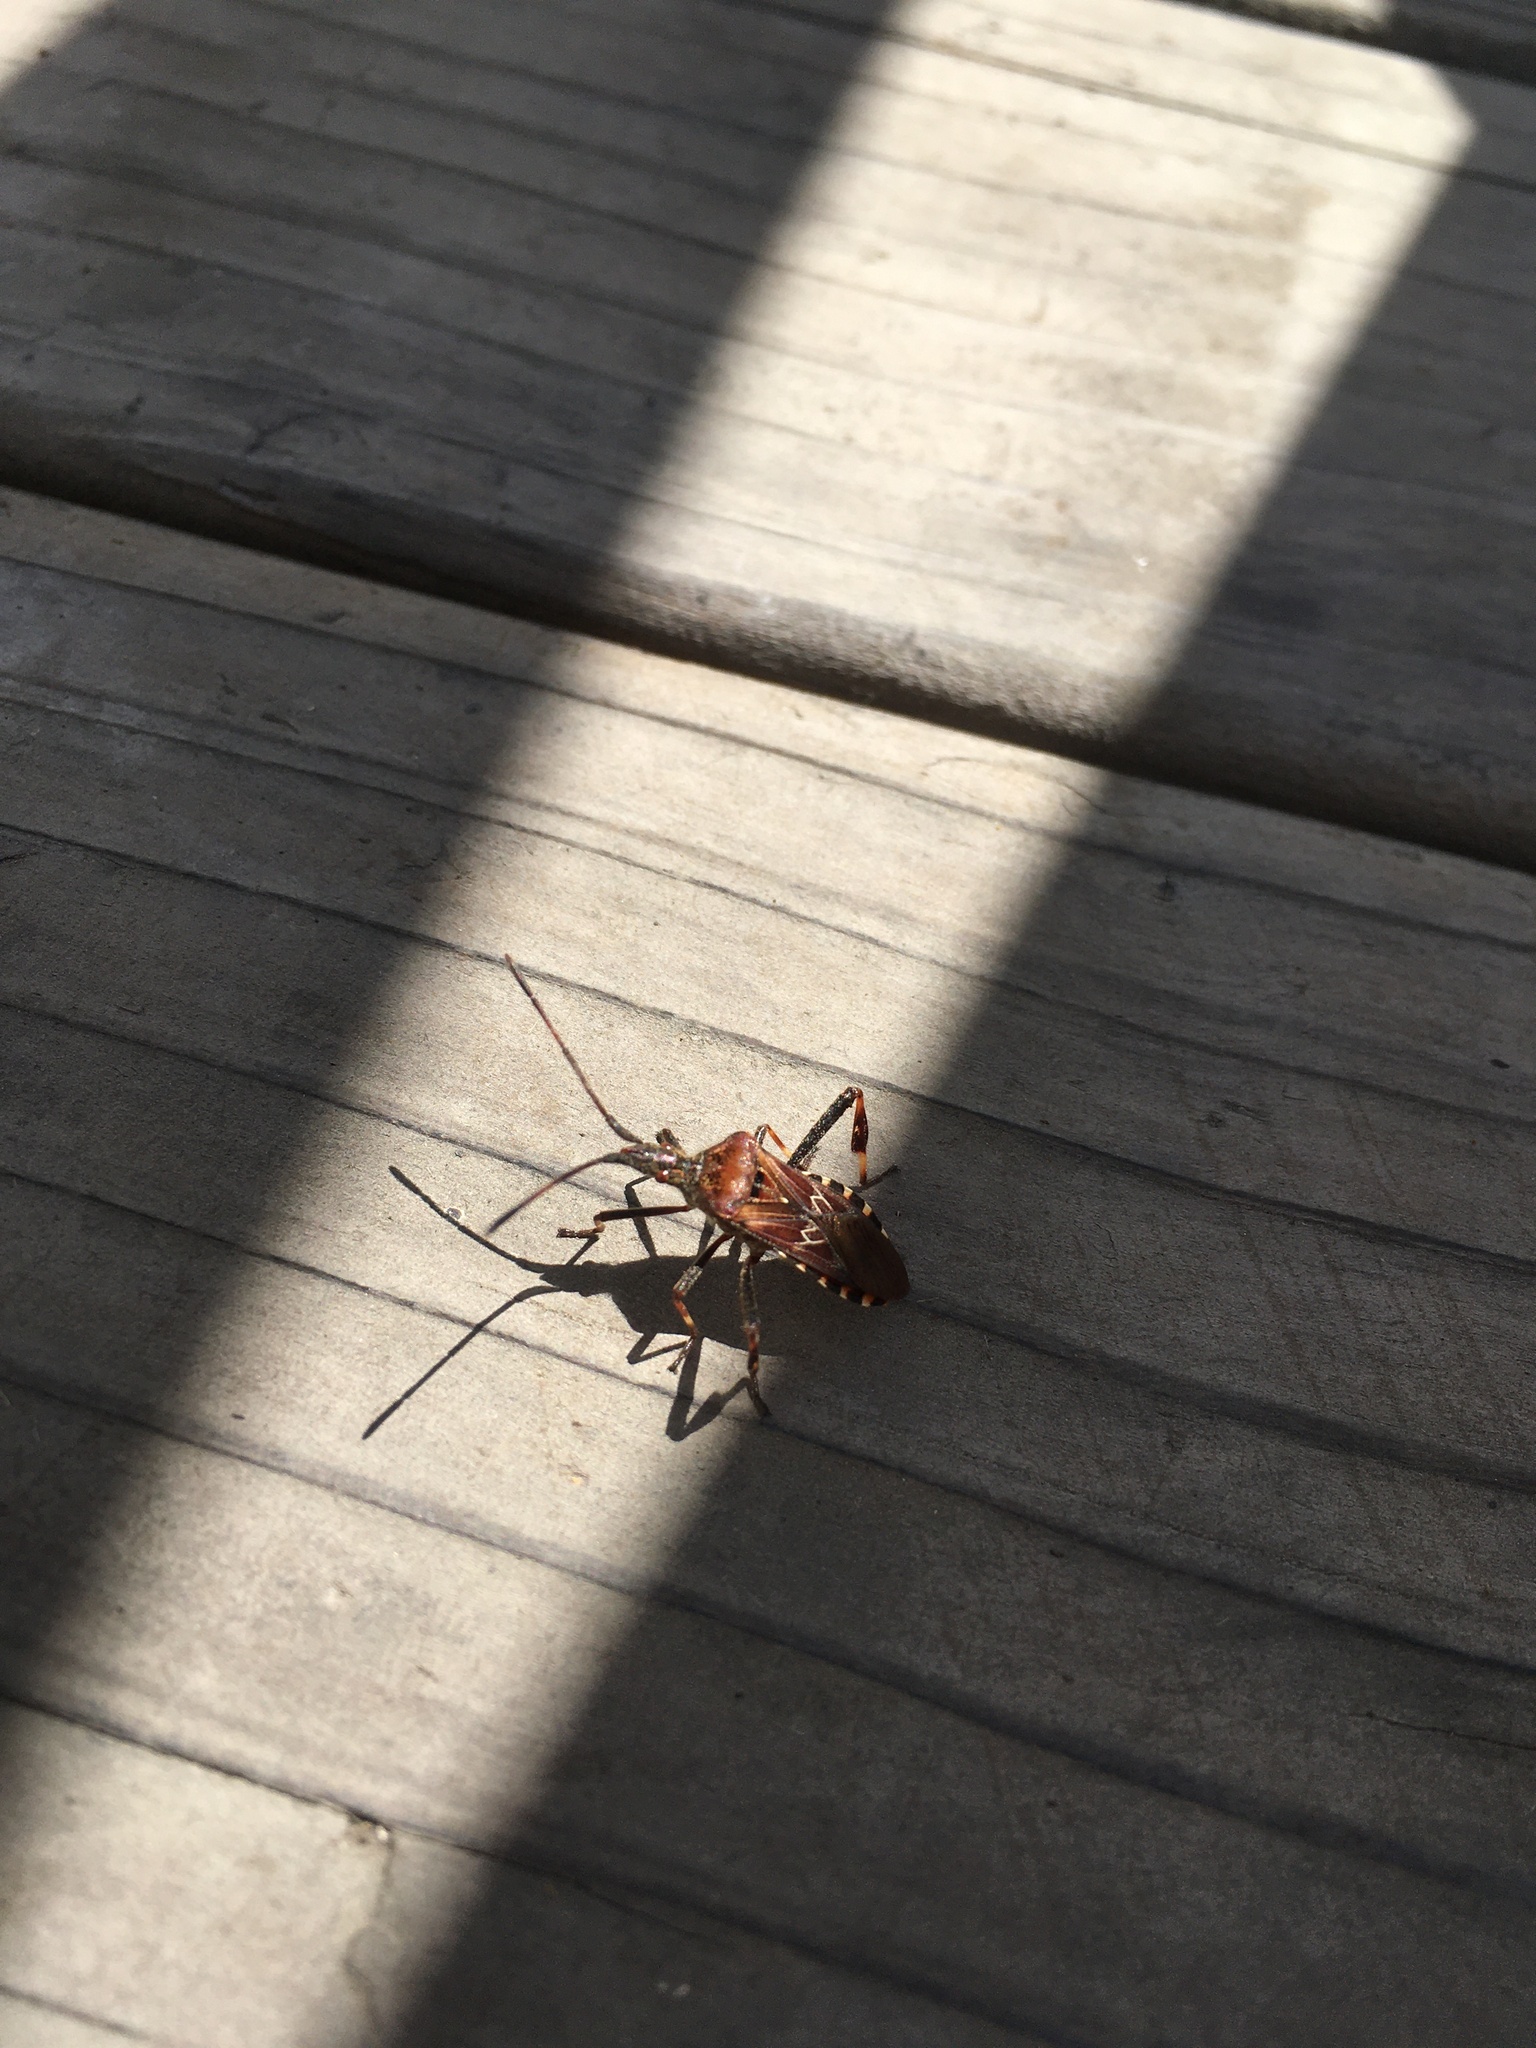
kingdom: Animalia
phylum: Arthropoda
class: Insecta
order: Hemiptera
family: Coreidae
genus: Leptoglossus
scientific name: Leptoglossus occidentalis
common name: Western conifer-seed bug
